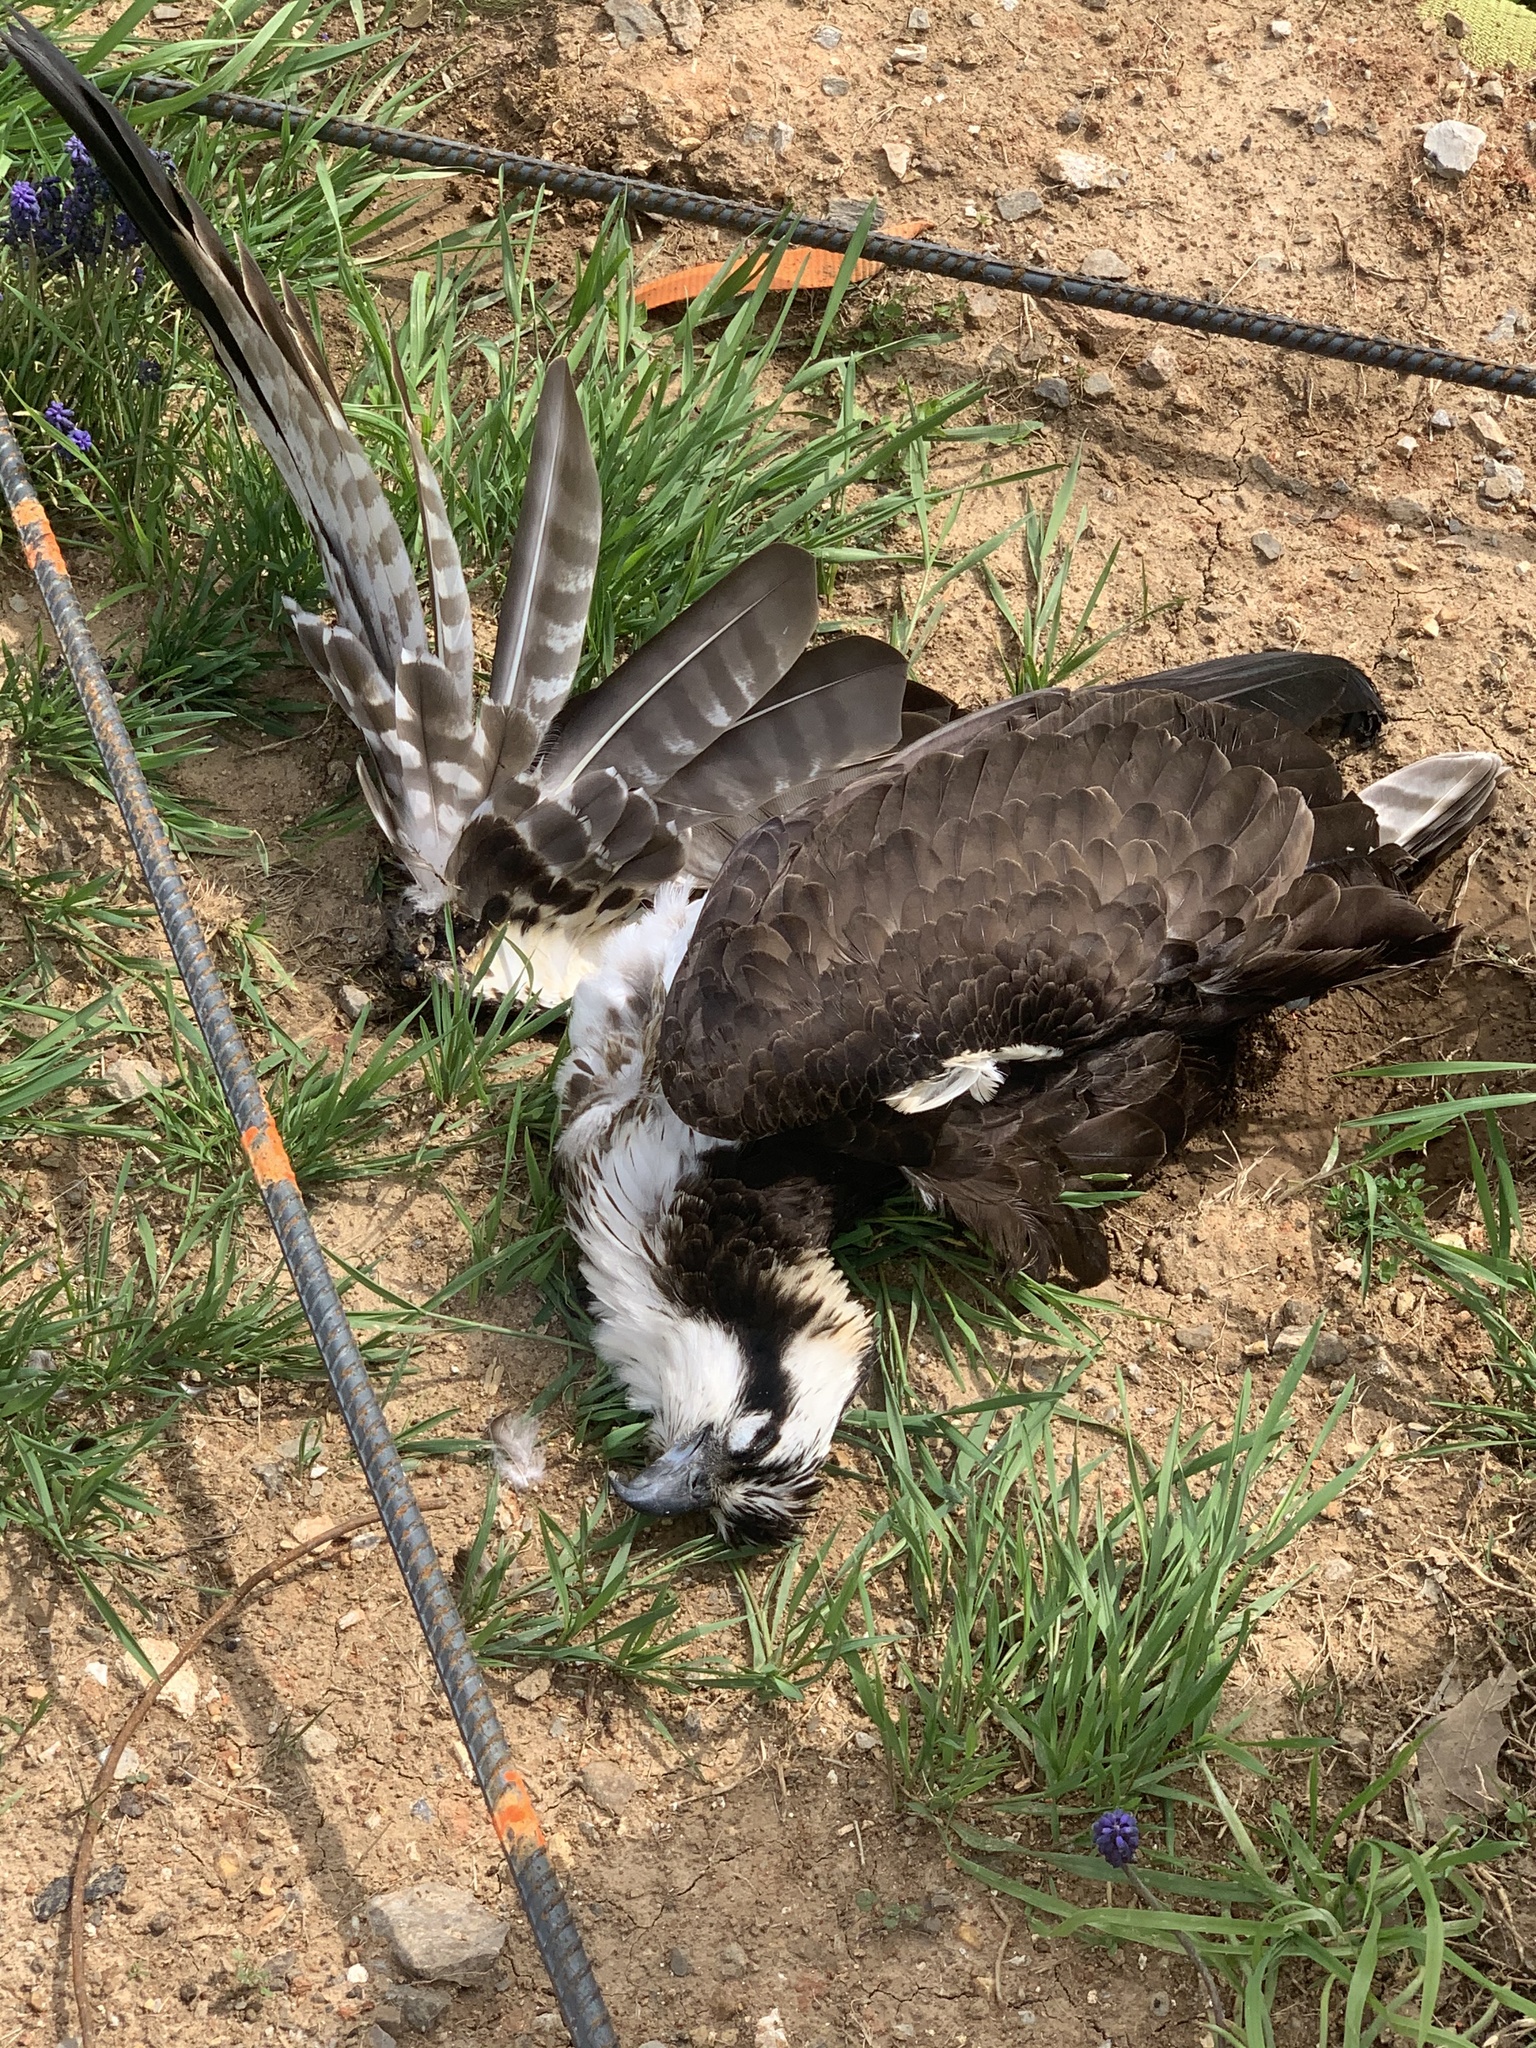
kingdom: Animalia
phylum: Chordata
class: Aves
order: Accipitriformes
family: Pandionidae
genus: Pandion
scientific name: Pandion haliaetus
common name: Osprey
